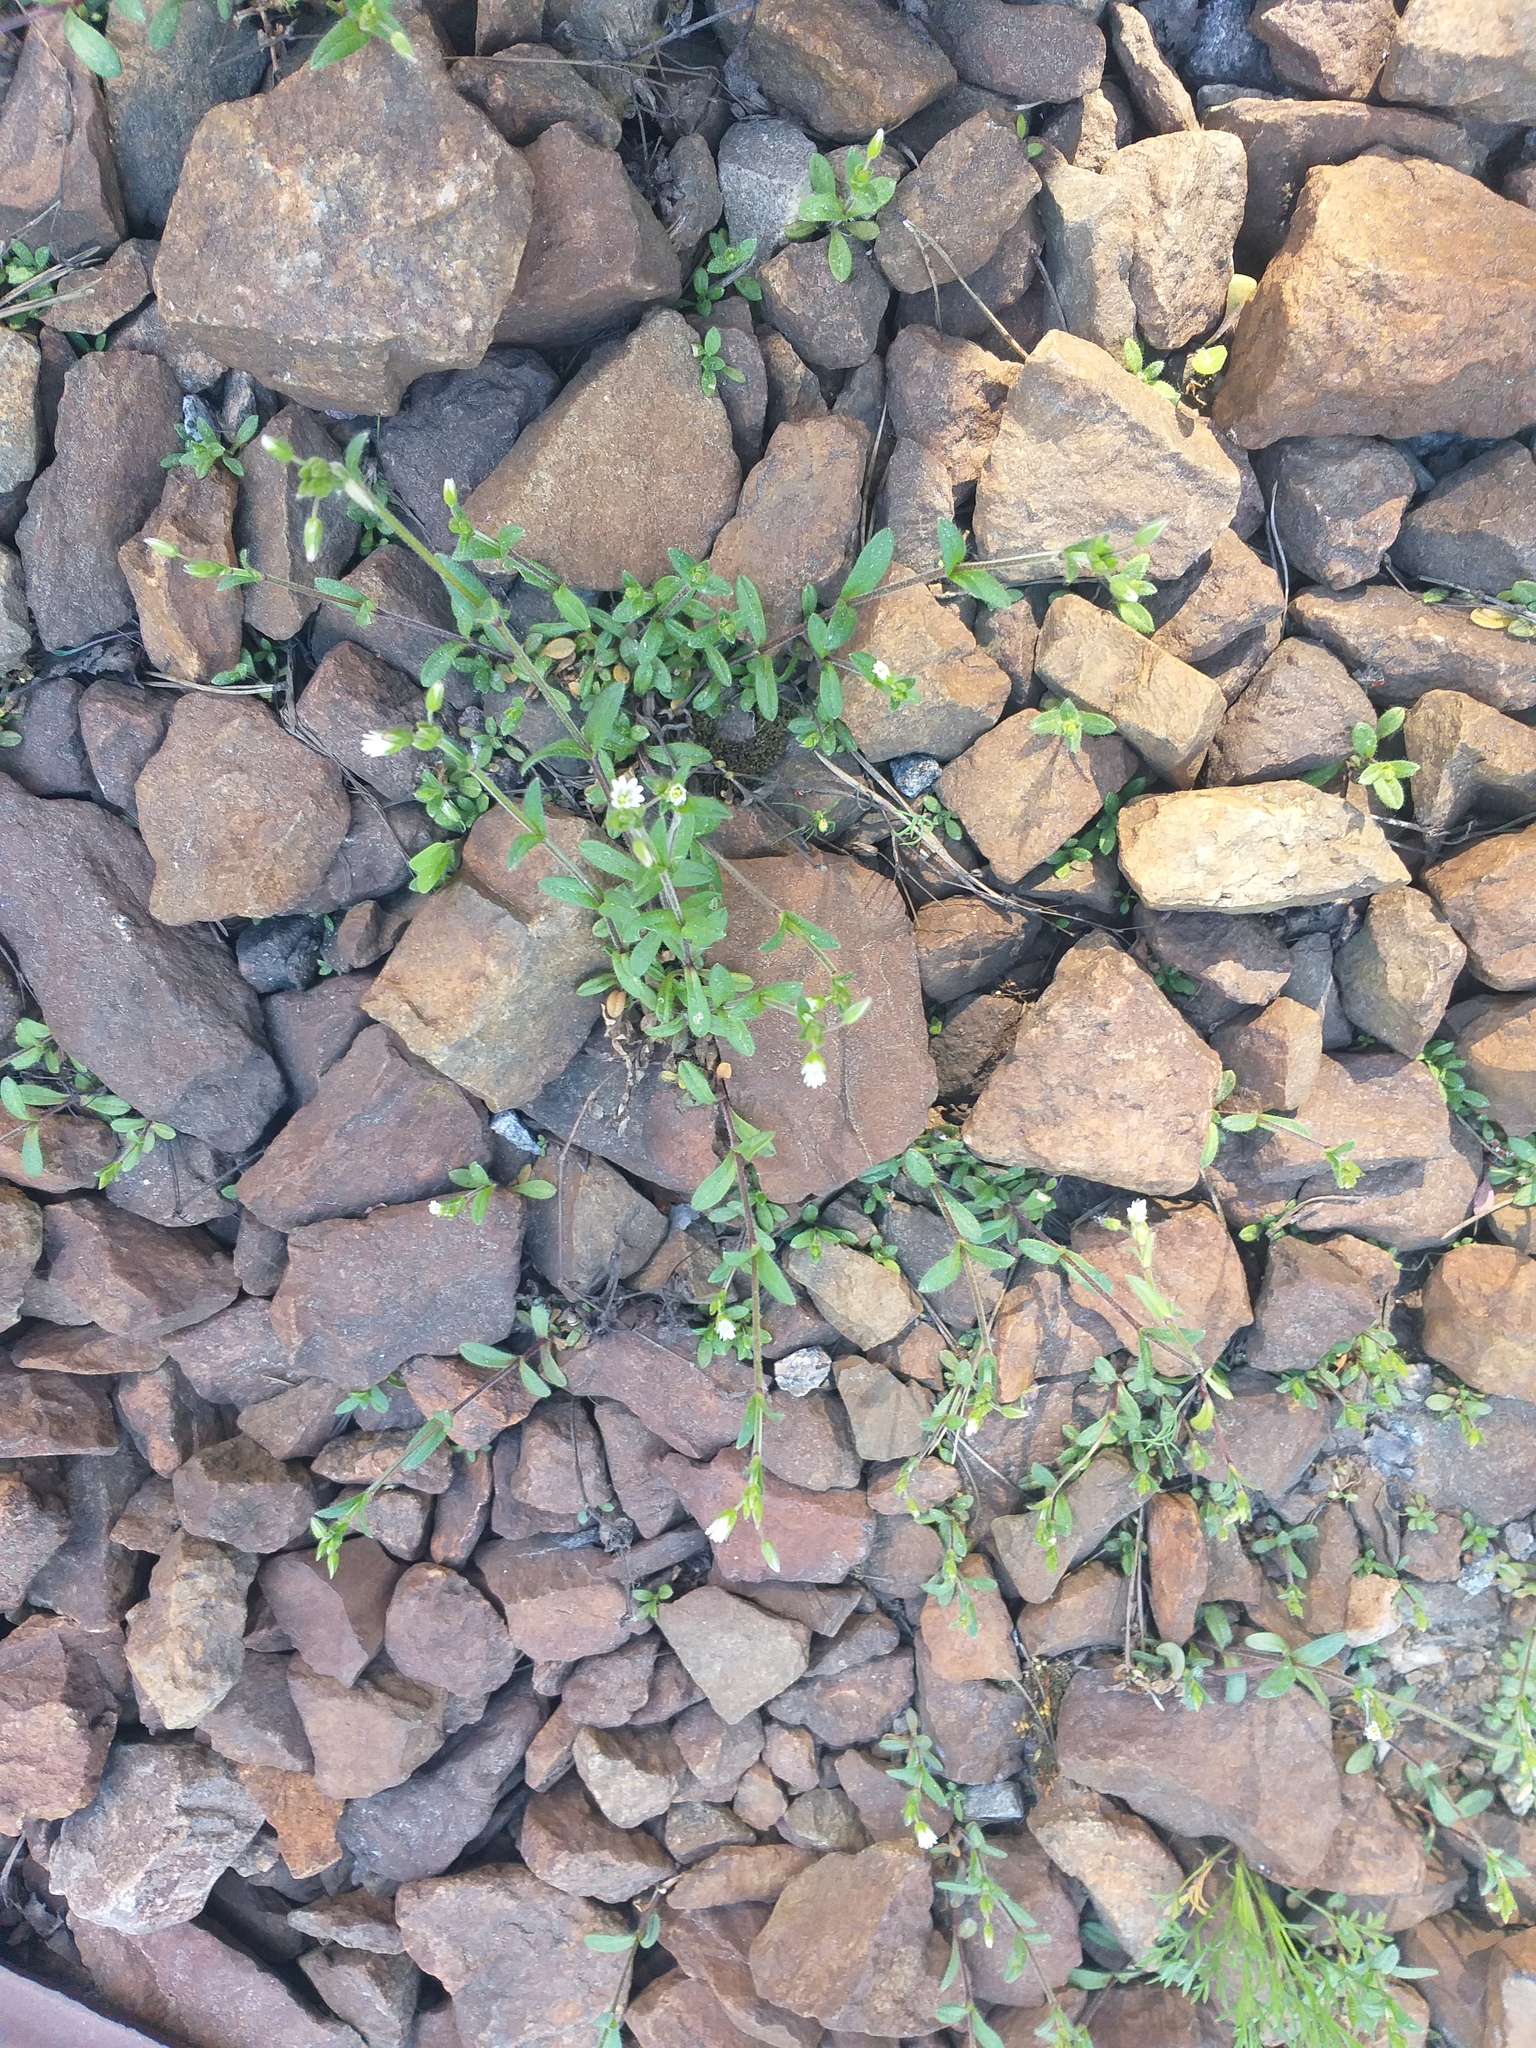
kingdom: Plantae
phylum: Tracheophyta
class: Magnoliopsida
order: Caryophyllales
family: Caryophyllaceae
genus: Cerastium
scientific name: Cerastium holosteoides
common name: Big chickweed
